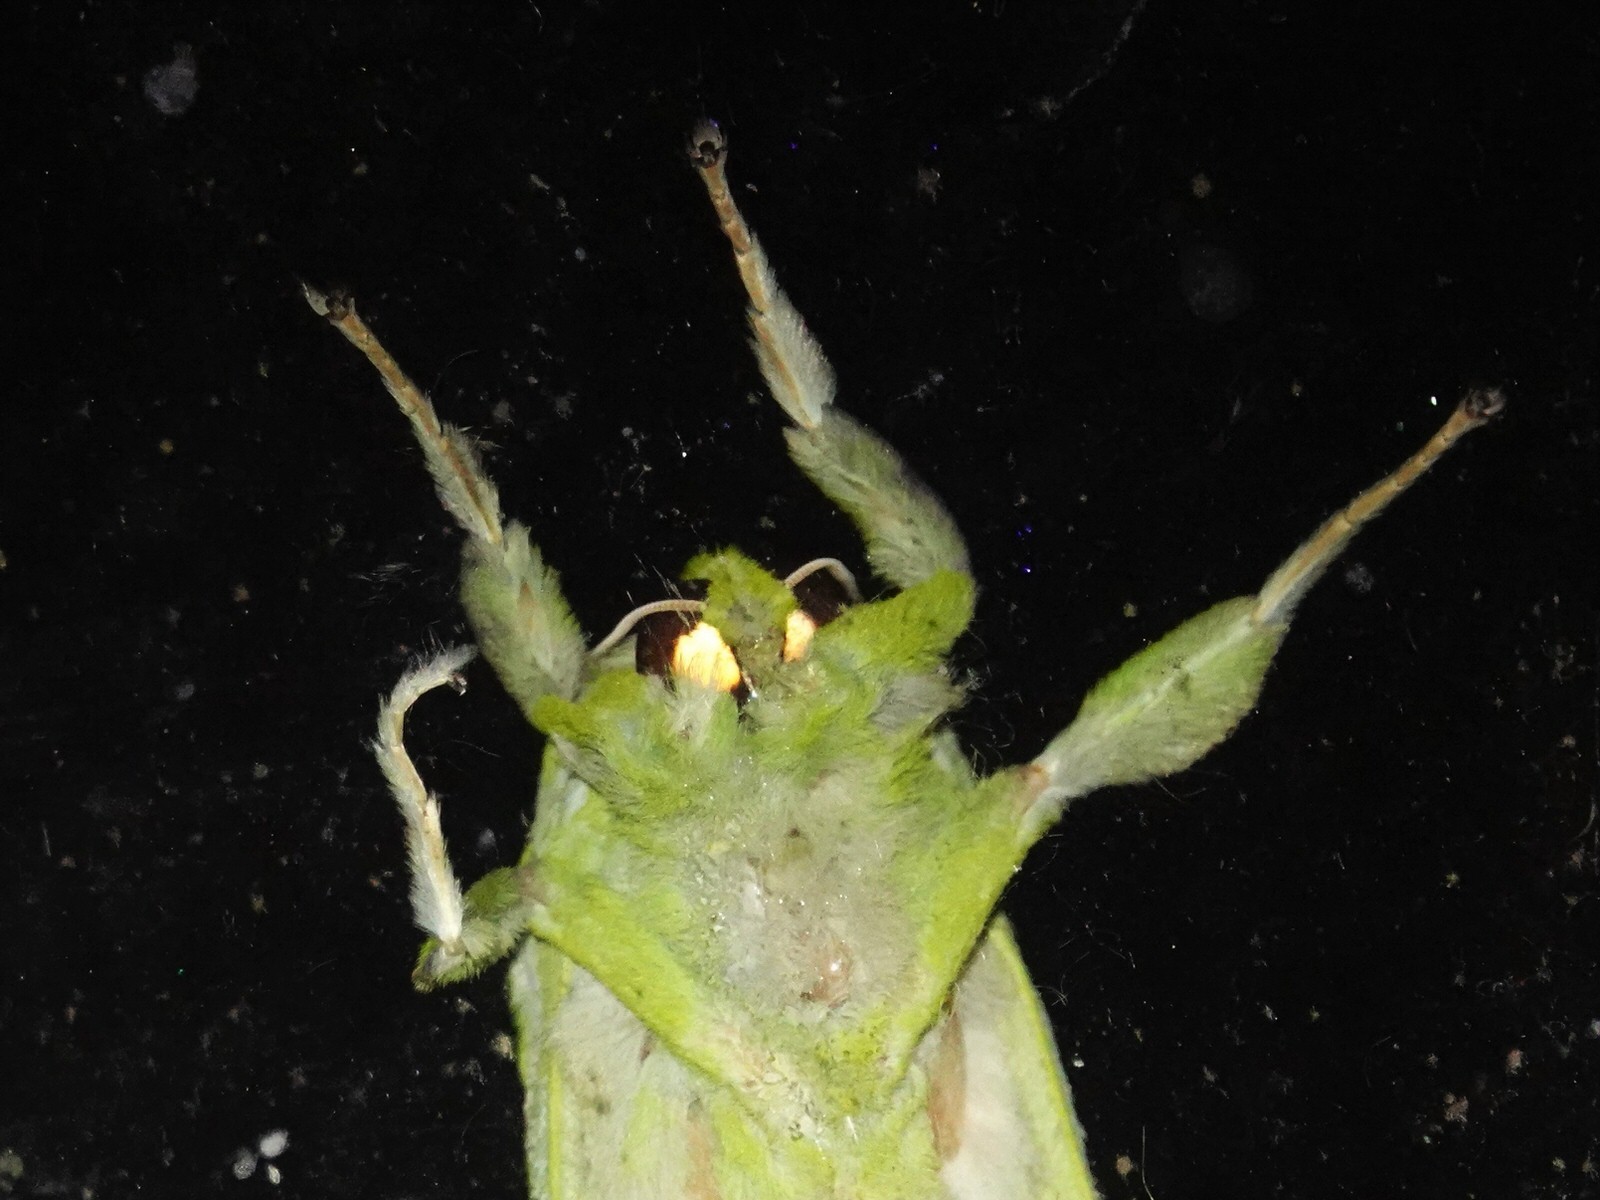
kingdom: Animalia
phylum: Arthropoda
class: Insecta
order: Lepidoptera
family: Hepialidae
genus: Aenetus
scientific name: Aenetus virescens
